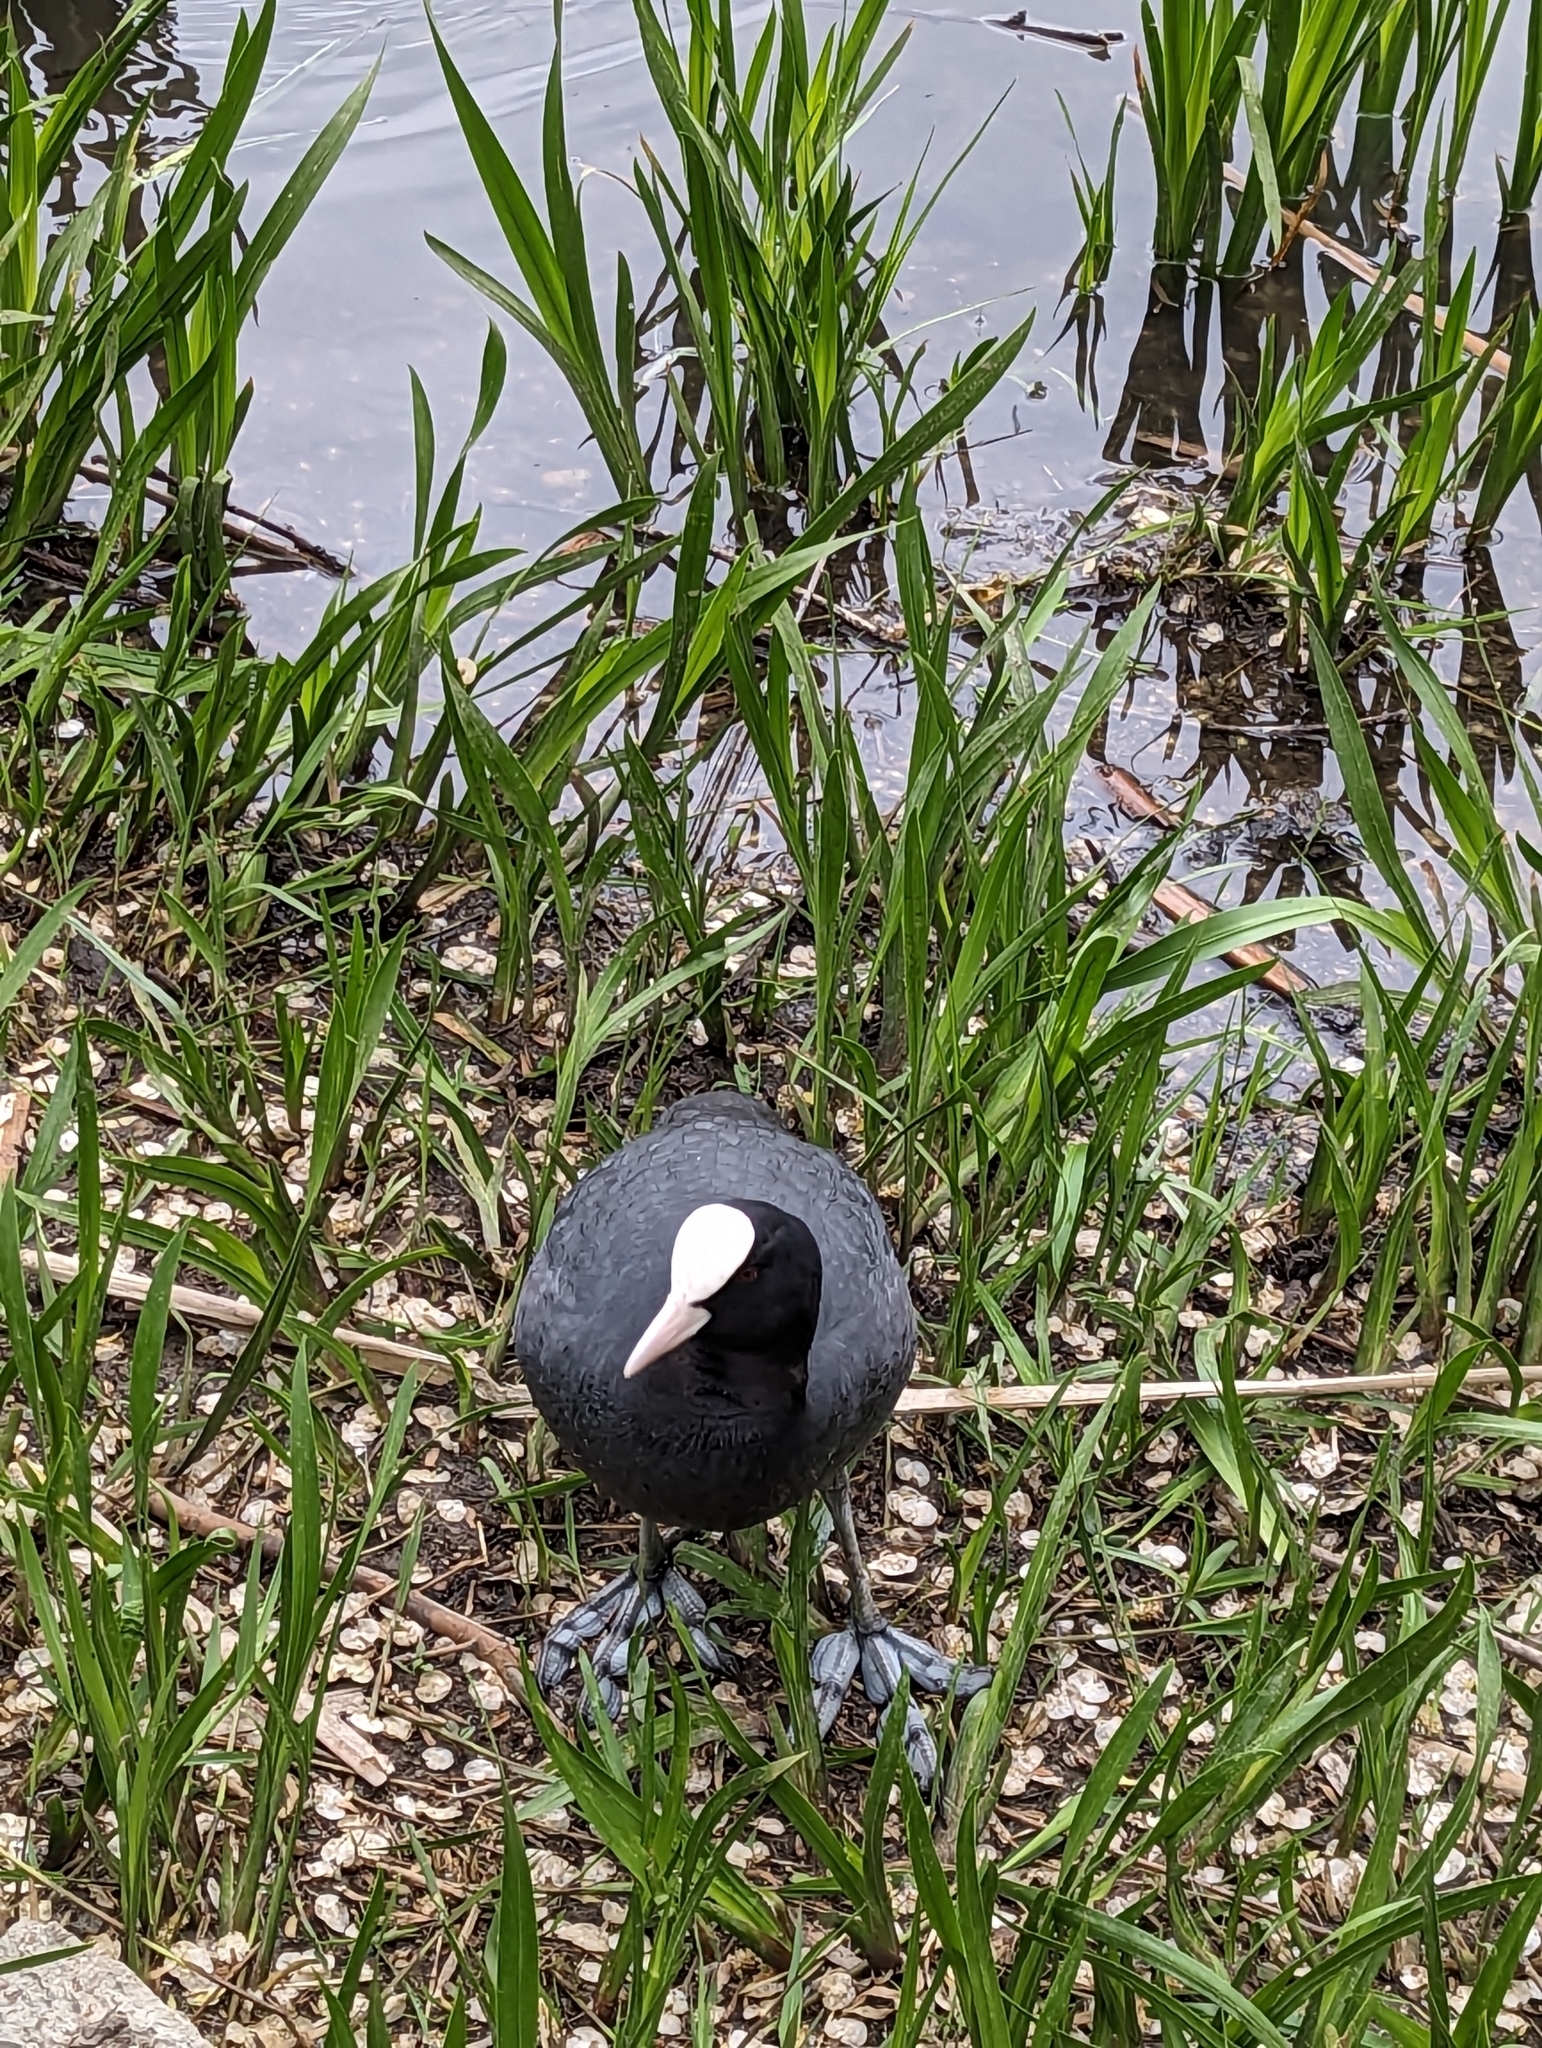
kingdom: Animalia
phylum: Chordata
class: Aves
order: Gruiformes
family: Rallidae
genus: Fulica
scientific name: Fulica atra
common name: Eurasian coot
